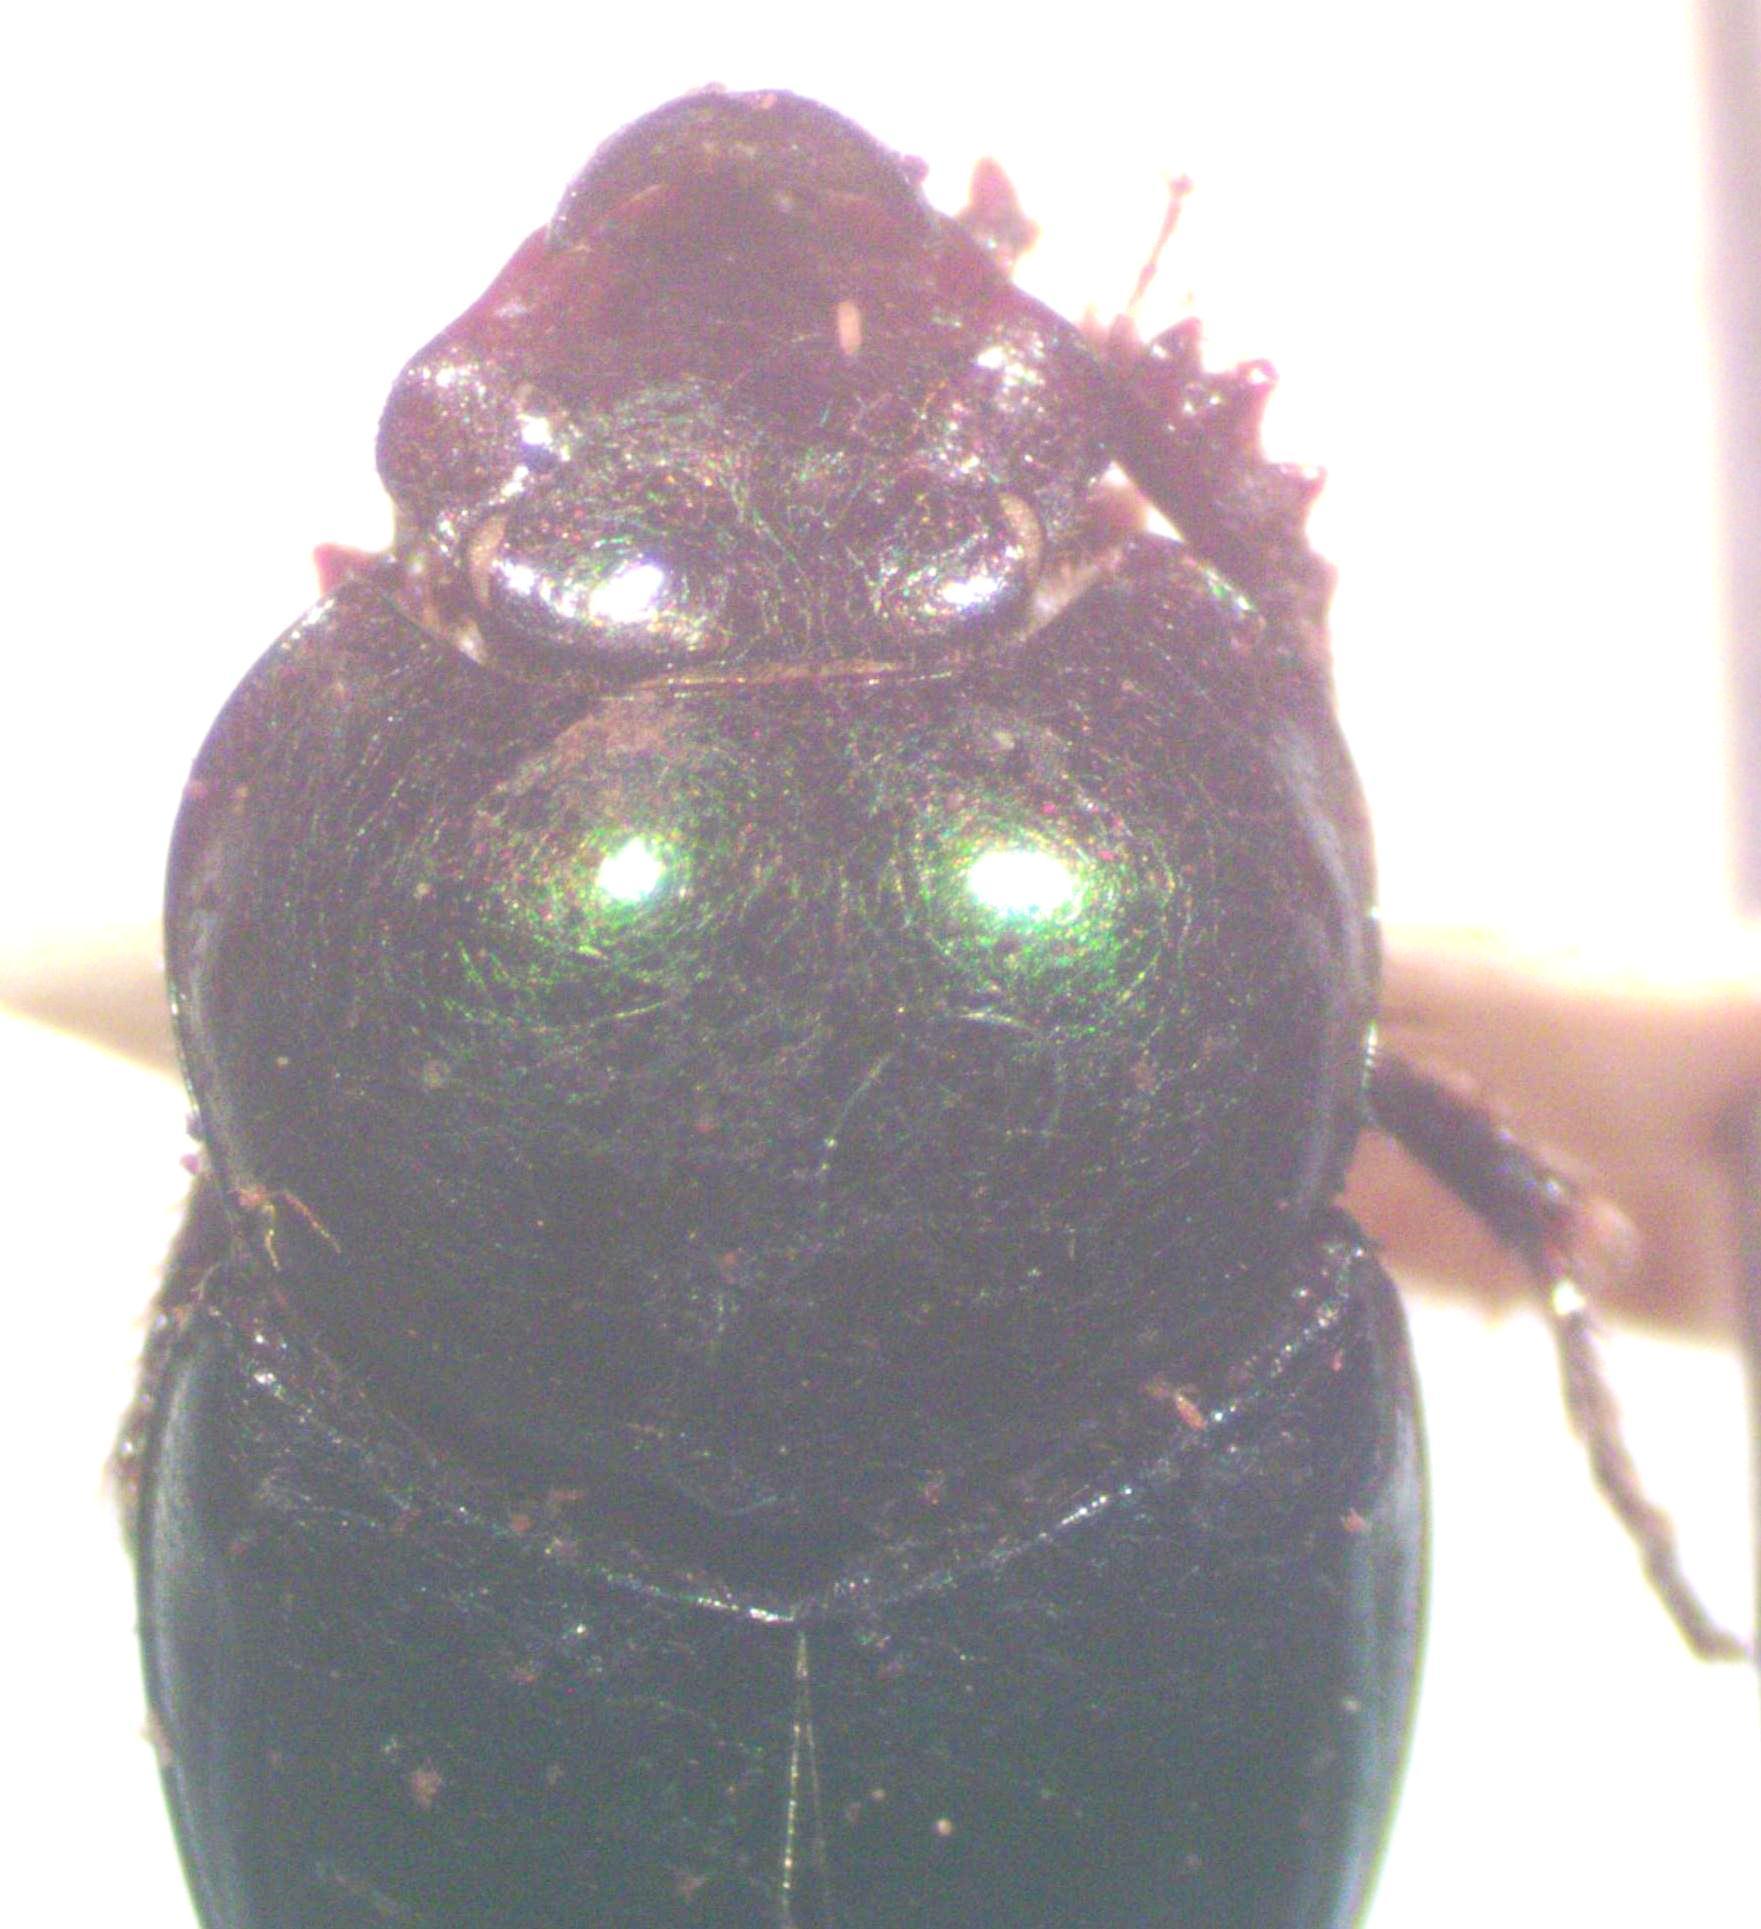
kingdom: Animalia
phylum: Arthropoda
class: Insecta
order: Coleoptera
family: Scarabaeidae
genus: Onthophagus
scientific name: Onthophagus tapirus
